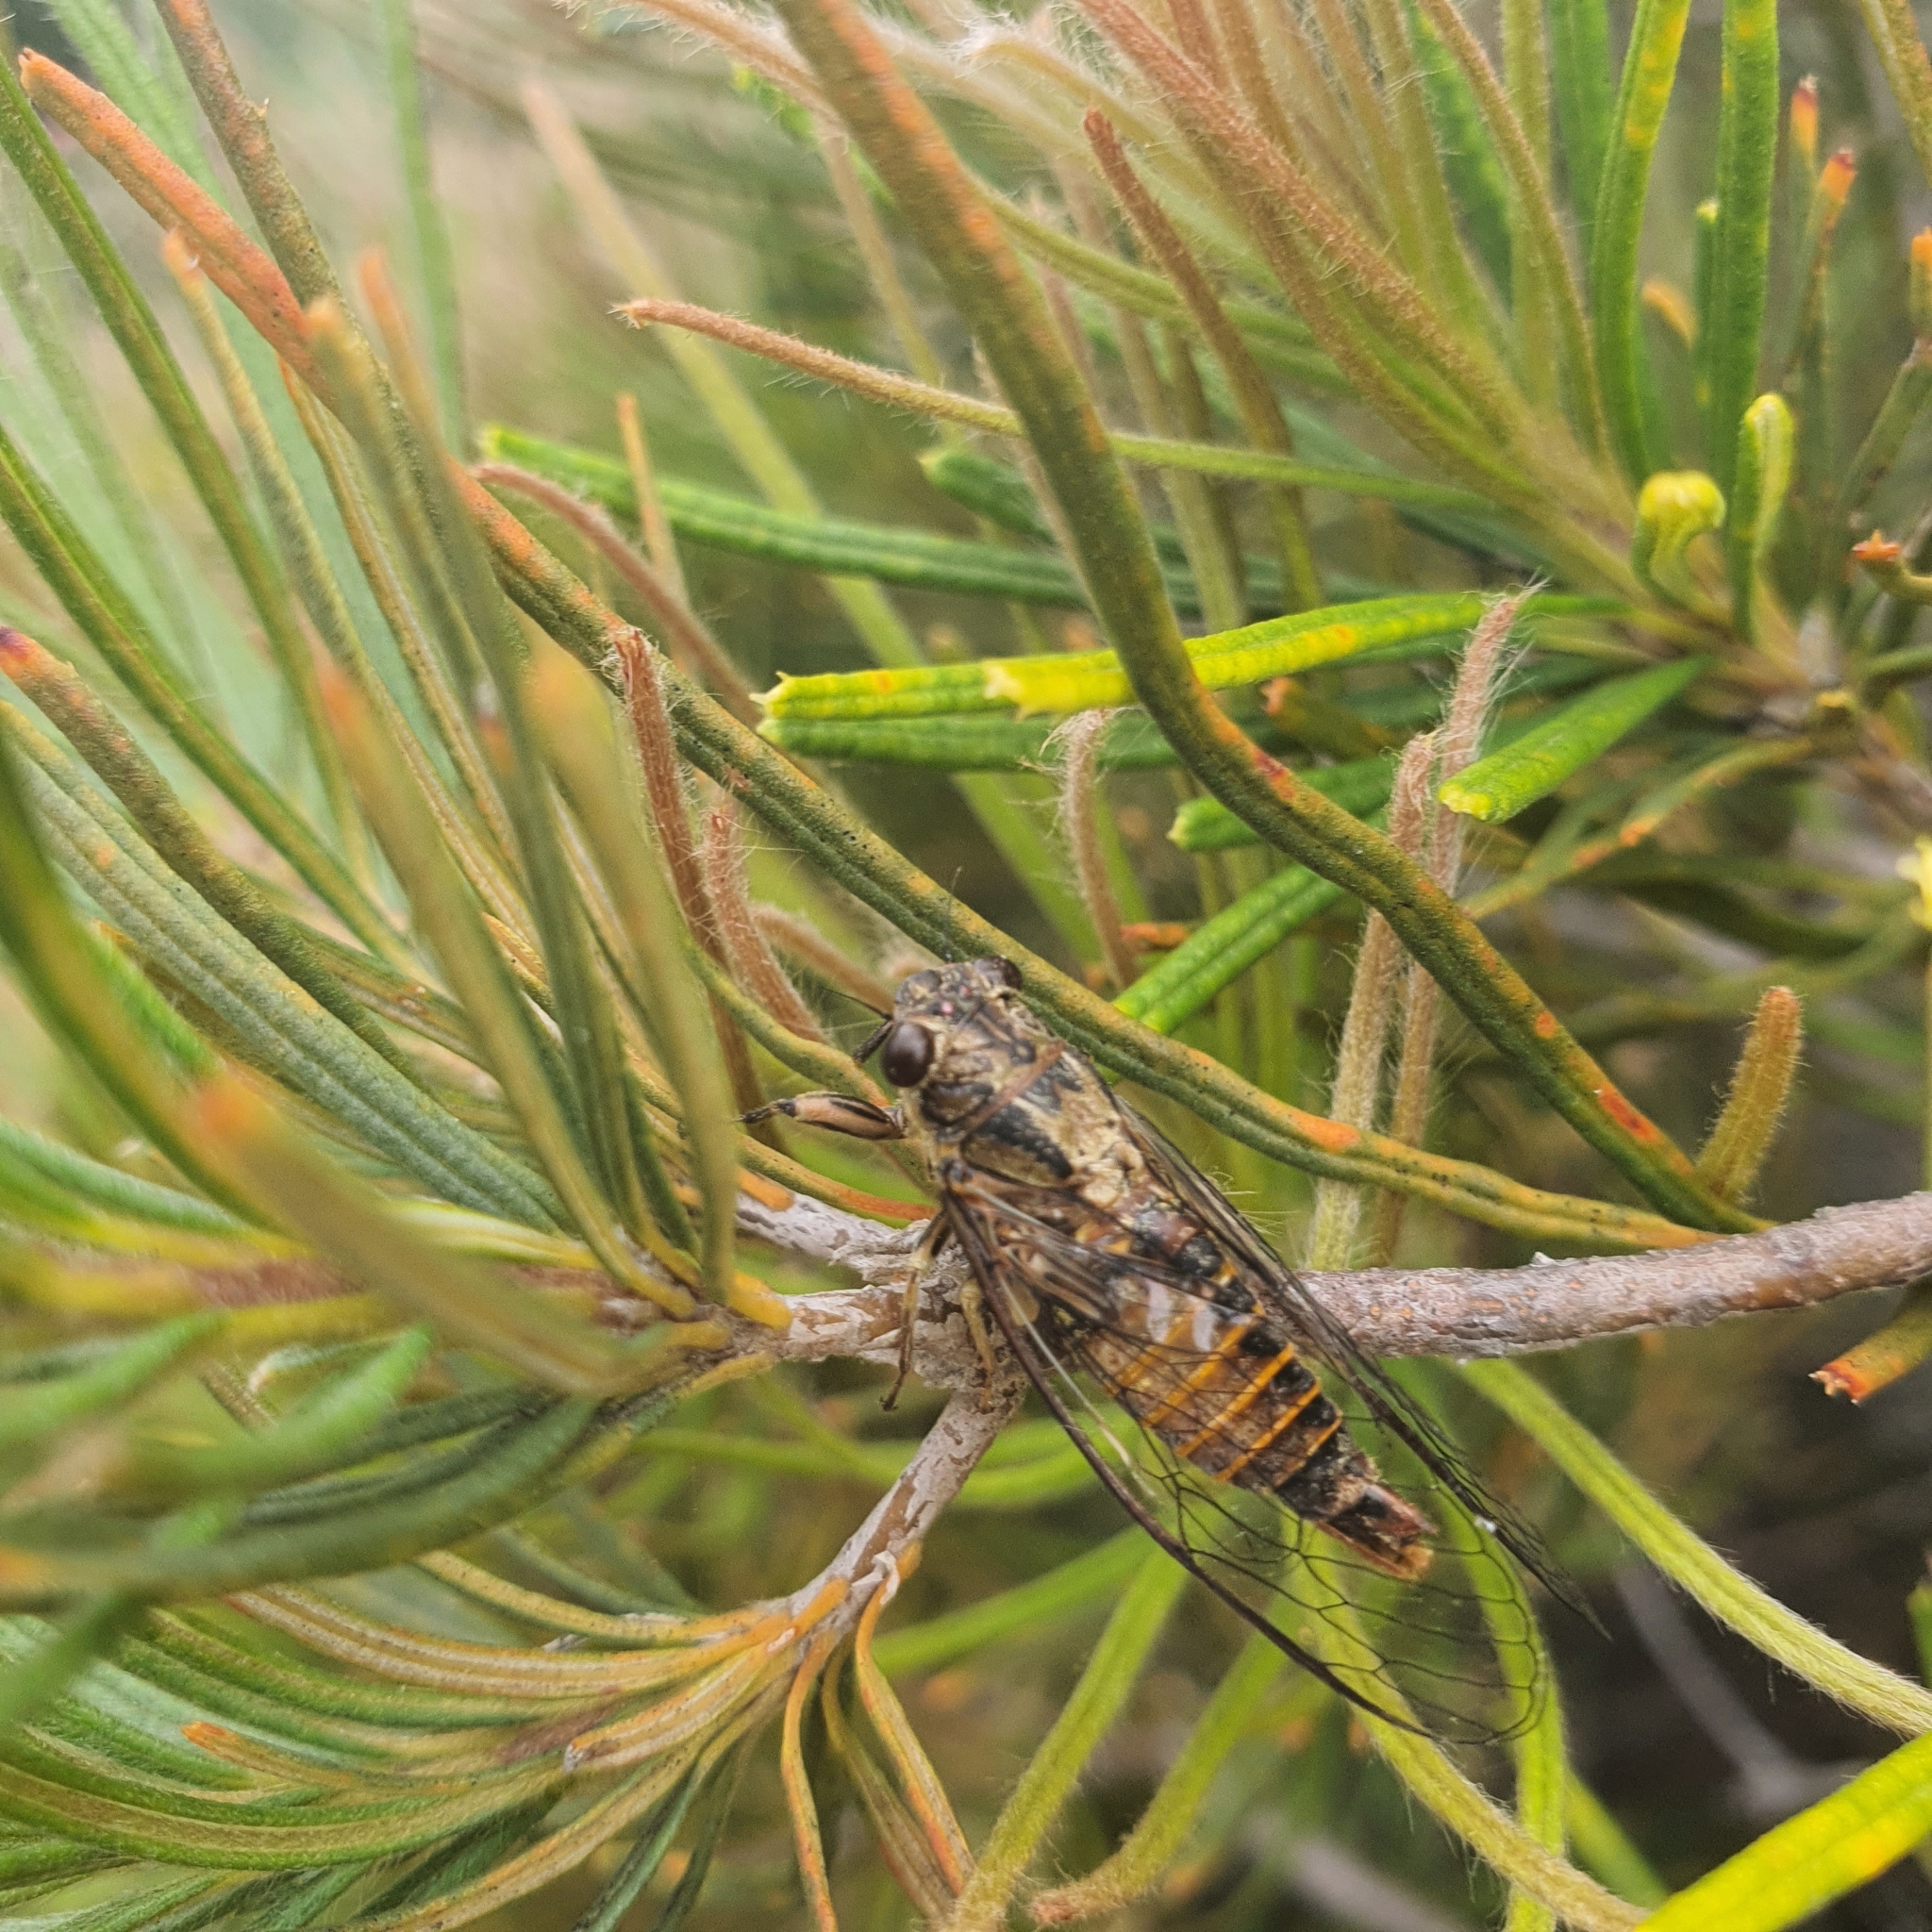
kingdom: Animalia
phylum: Arthropoda
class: Insecta
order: Hemiptera
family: Cicadidae
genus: Yoyetta
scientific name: Yoyetta celis
